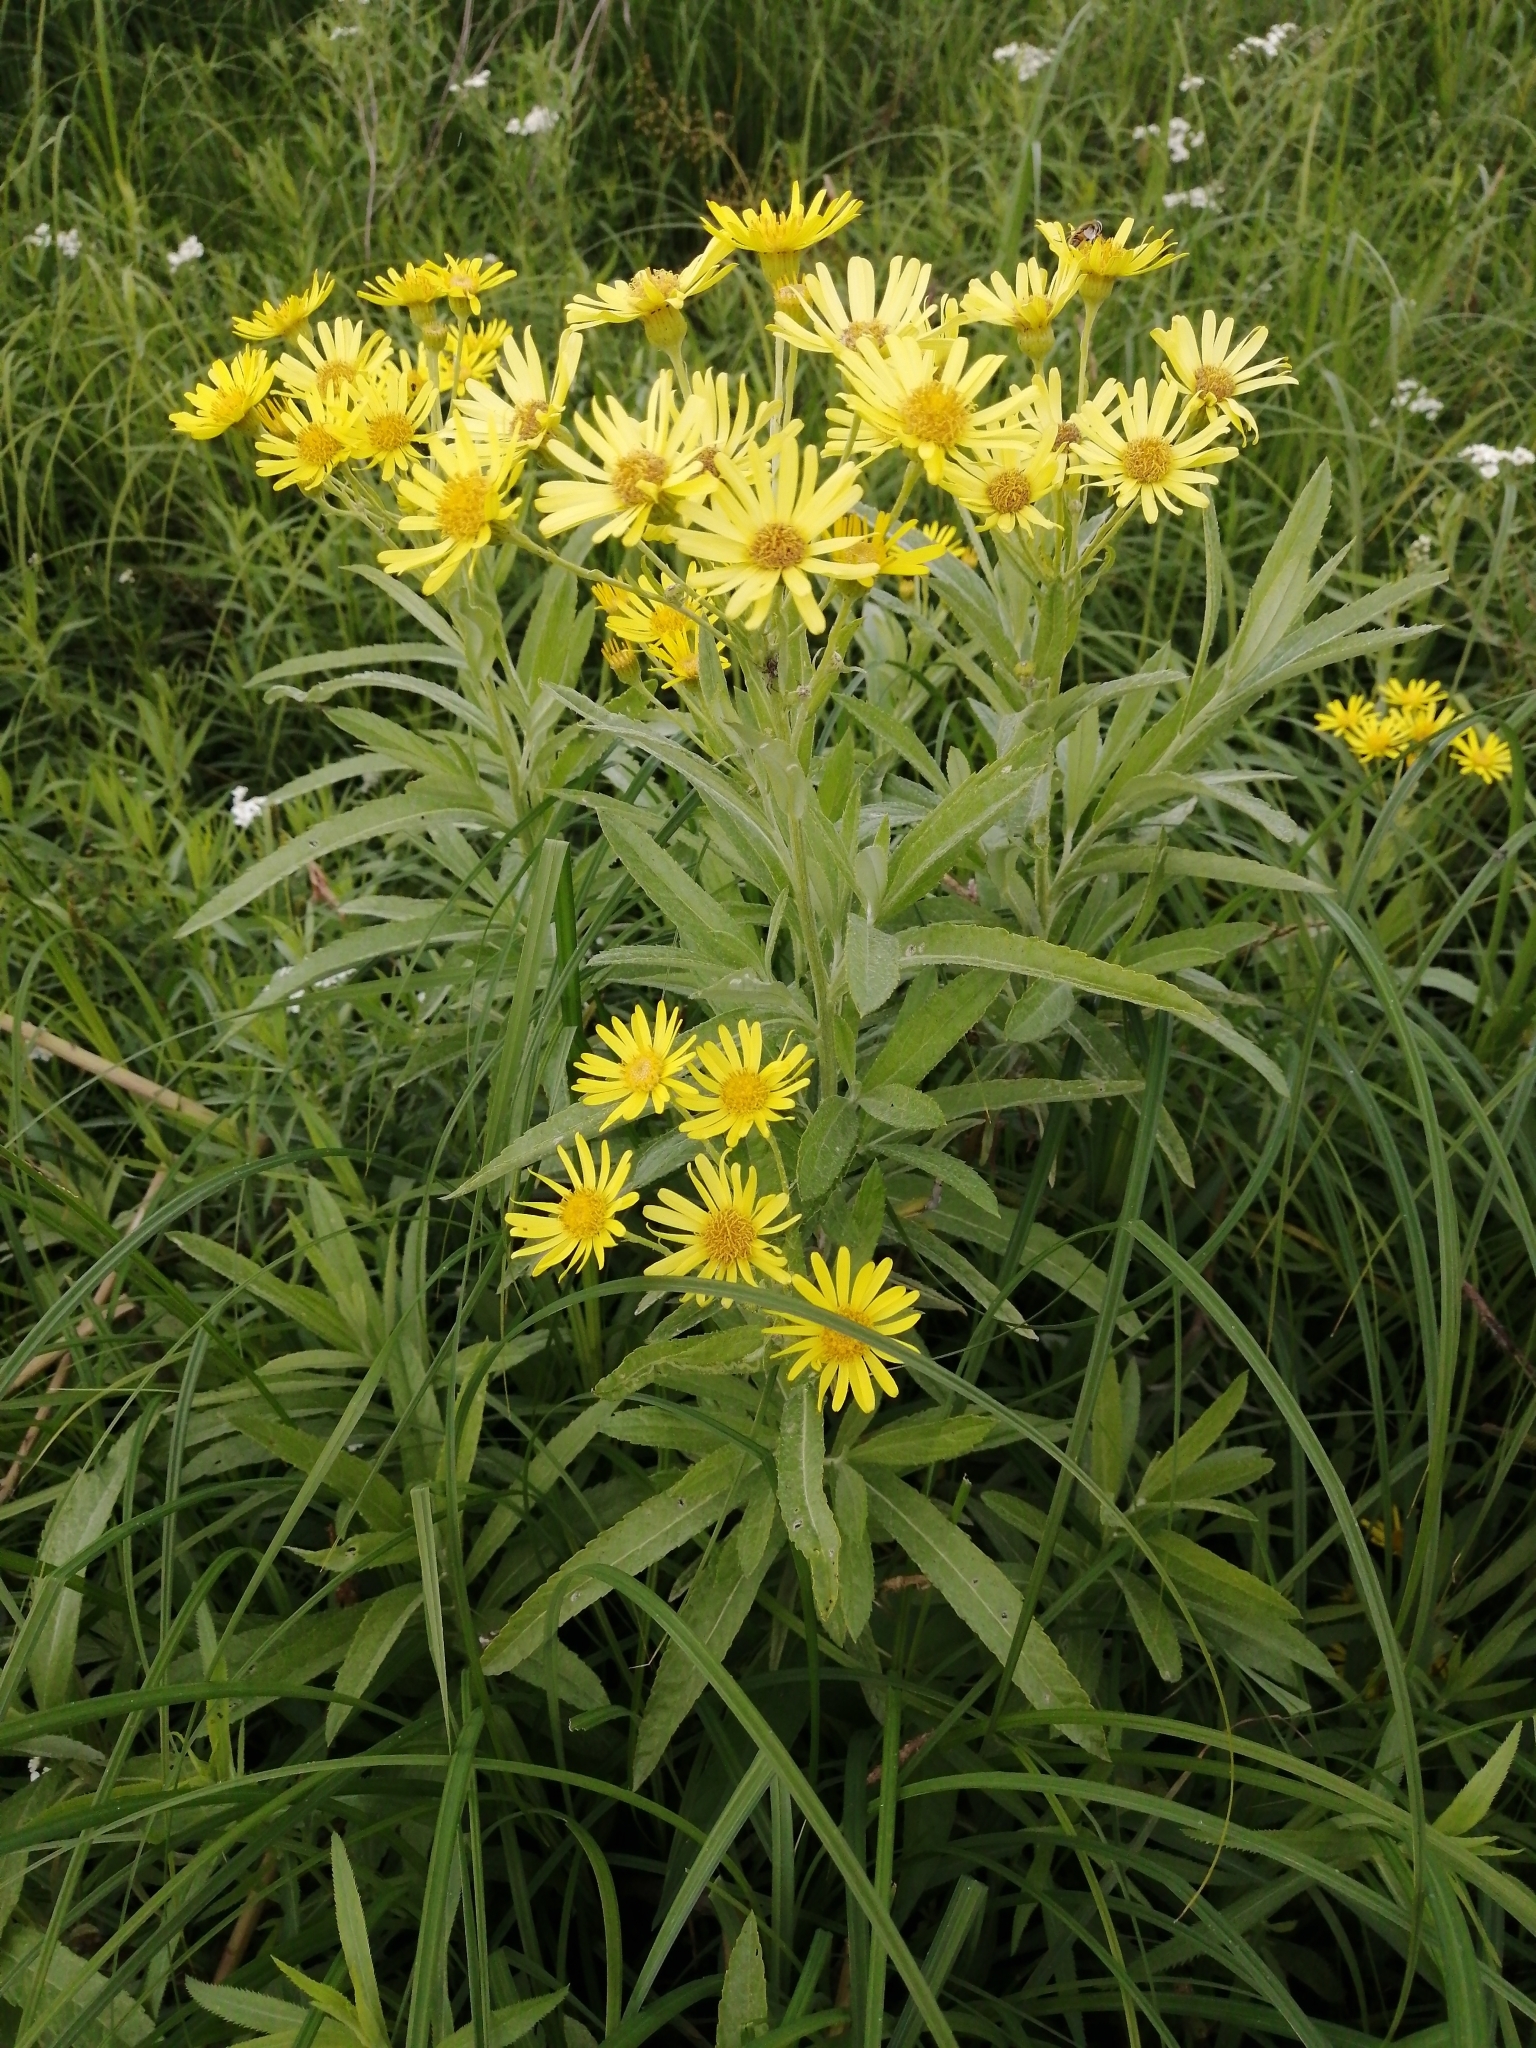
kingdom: Plantae
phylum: Tracheophyta
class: Magnoliopsida
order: Asterales
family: Asteraceae
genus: Jacobaea
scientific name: Jacobaea paludosa
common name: Fen ragwort
